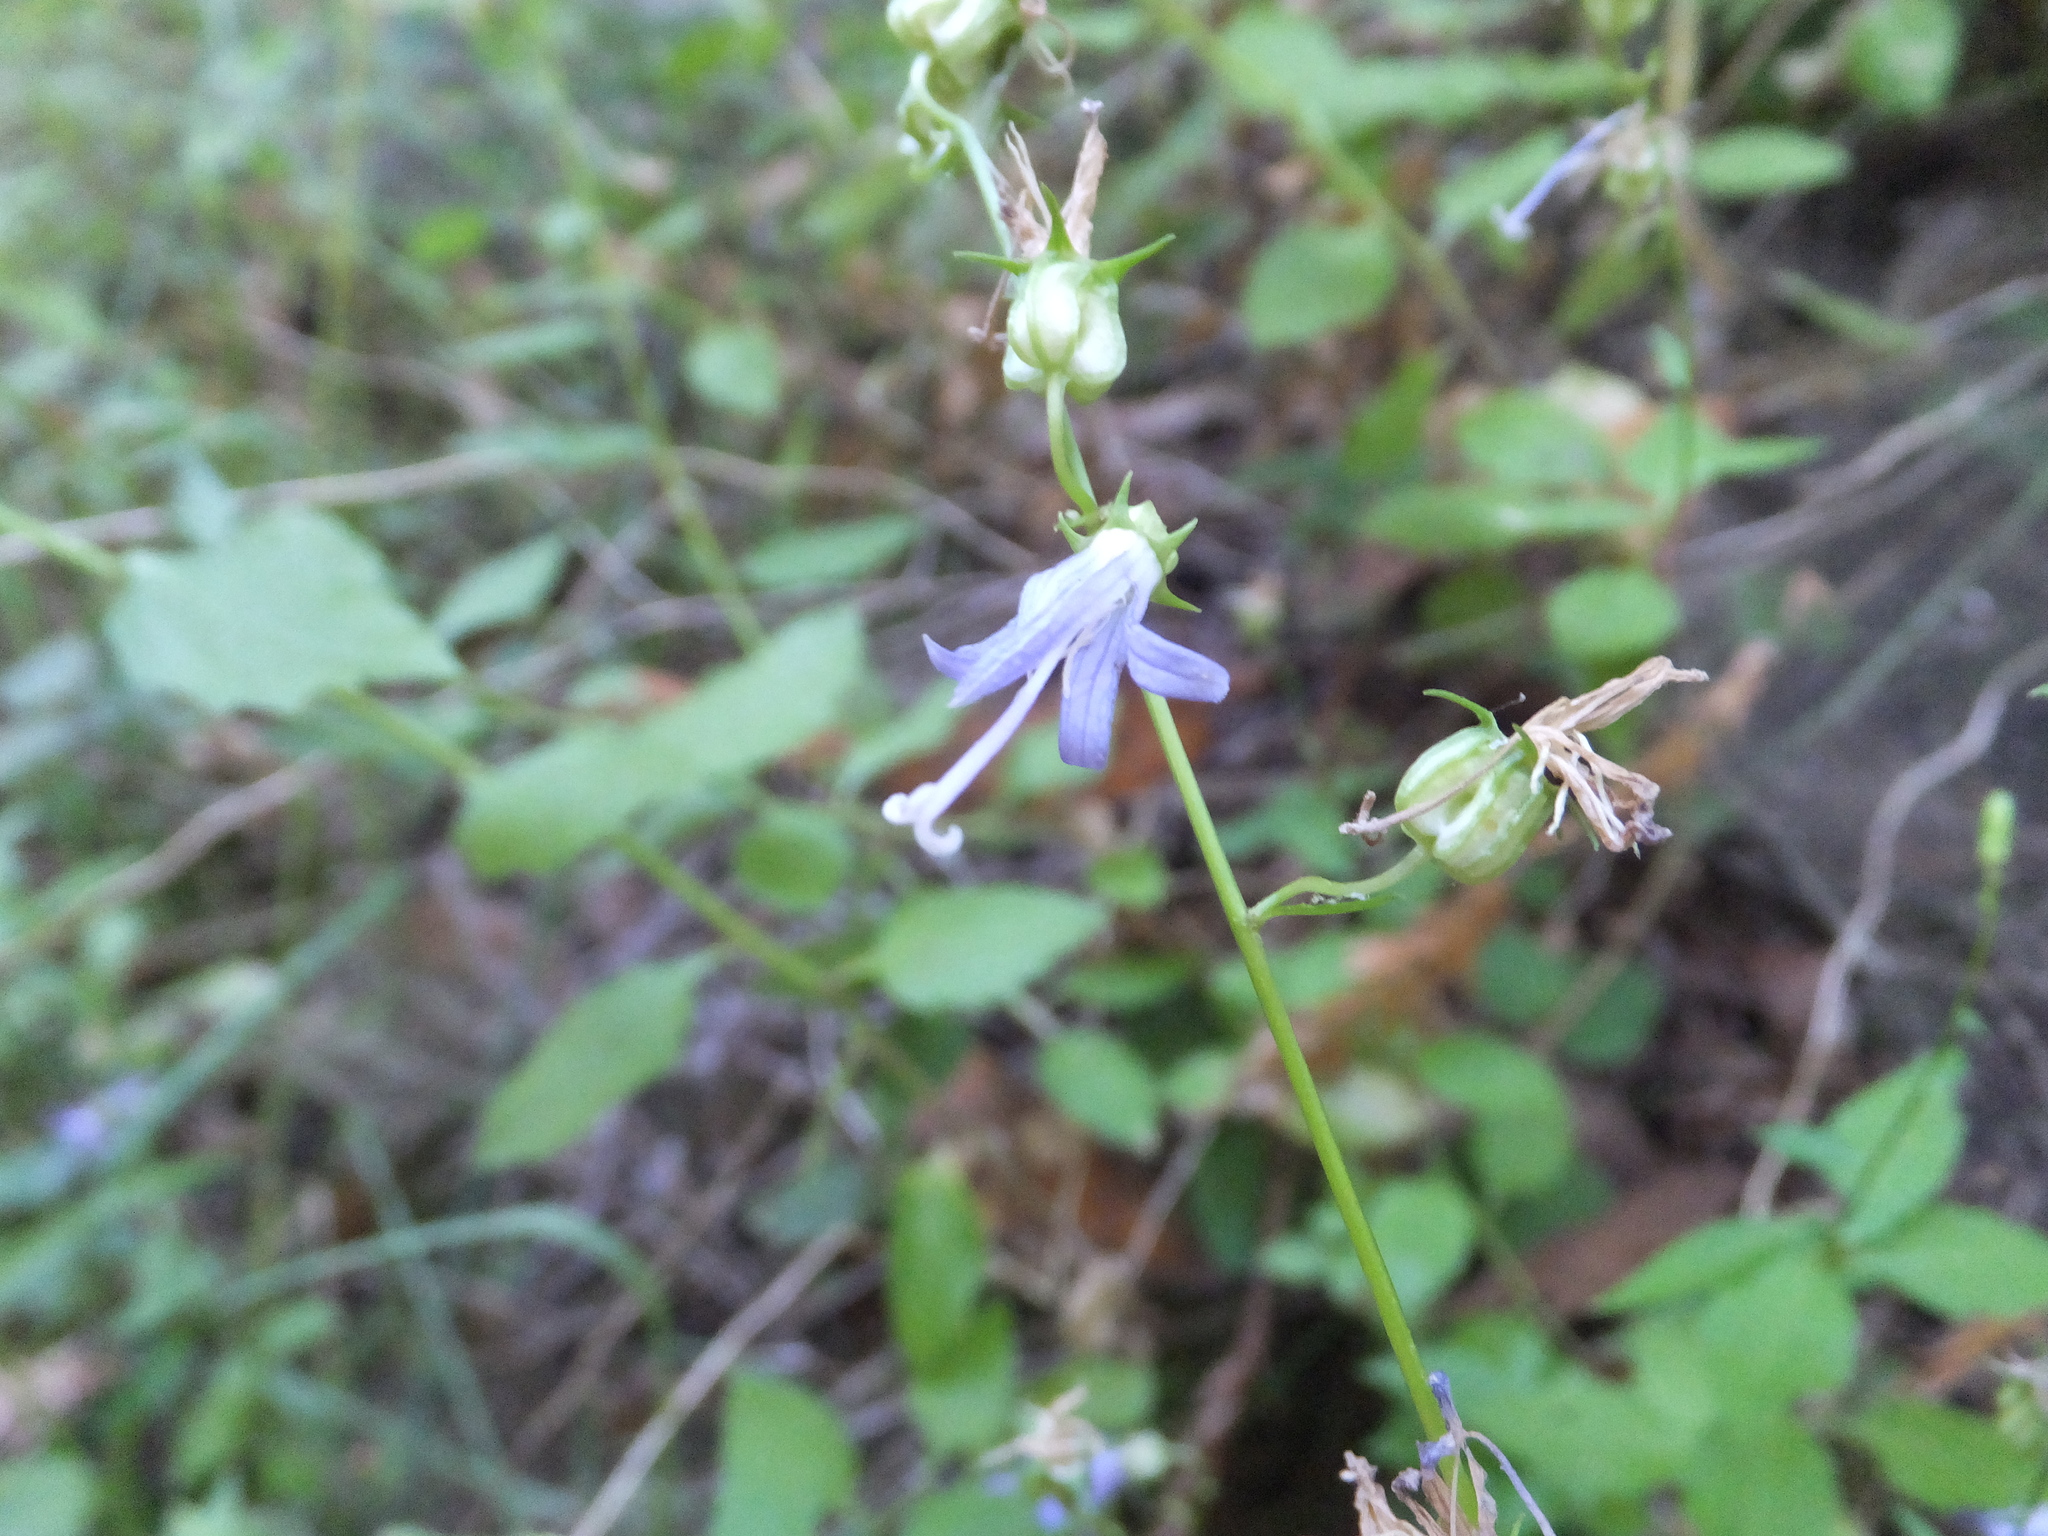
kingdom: Plantae
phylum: Tracheophyta
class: Magnoliopsida
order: Asterales
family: Campanulaceae
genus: Smithiastrum
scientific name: Smithiastrum prenanthoides
